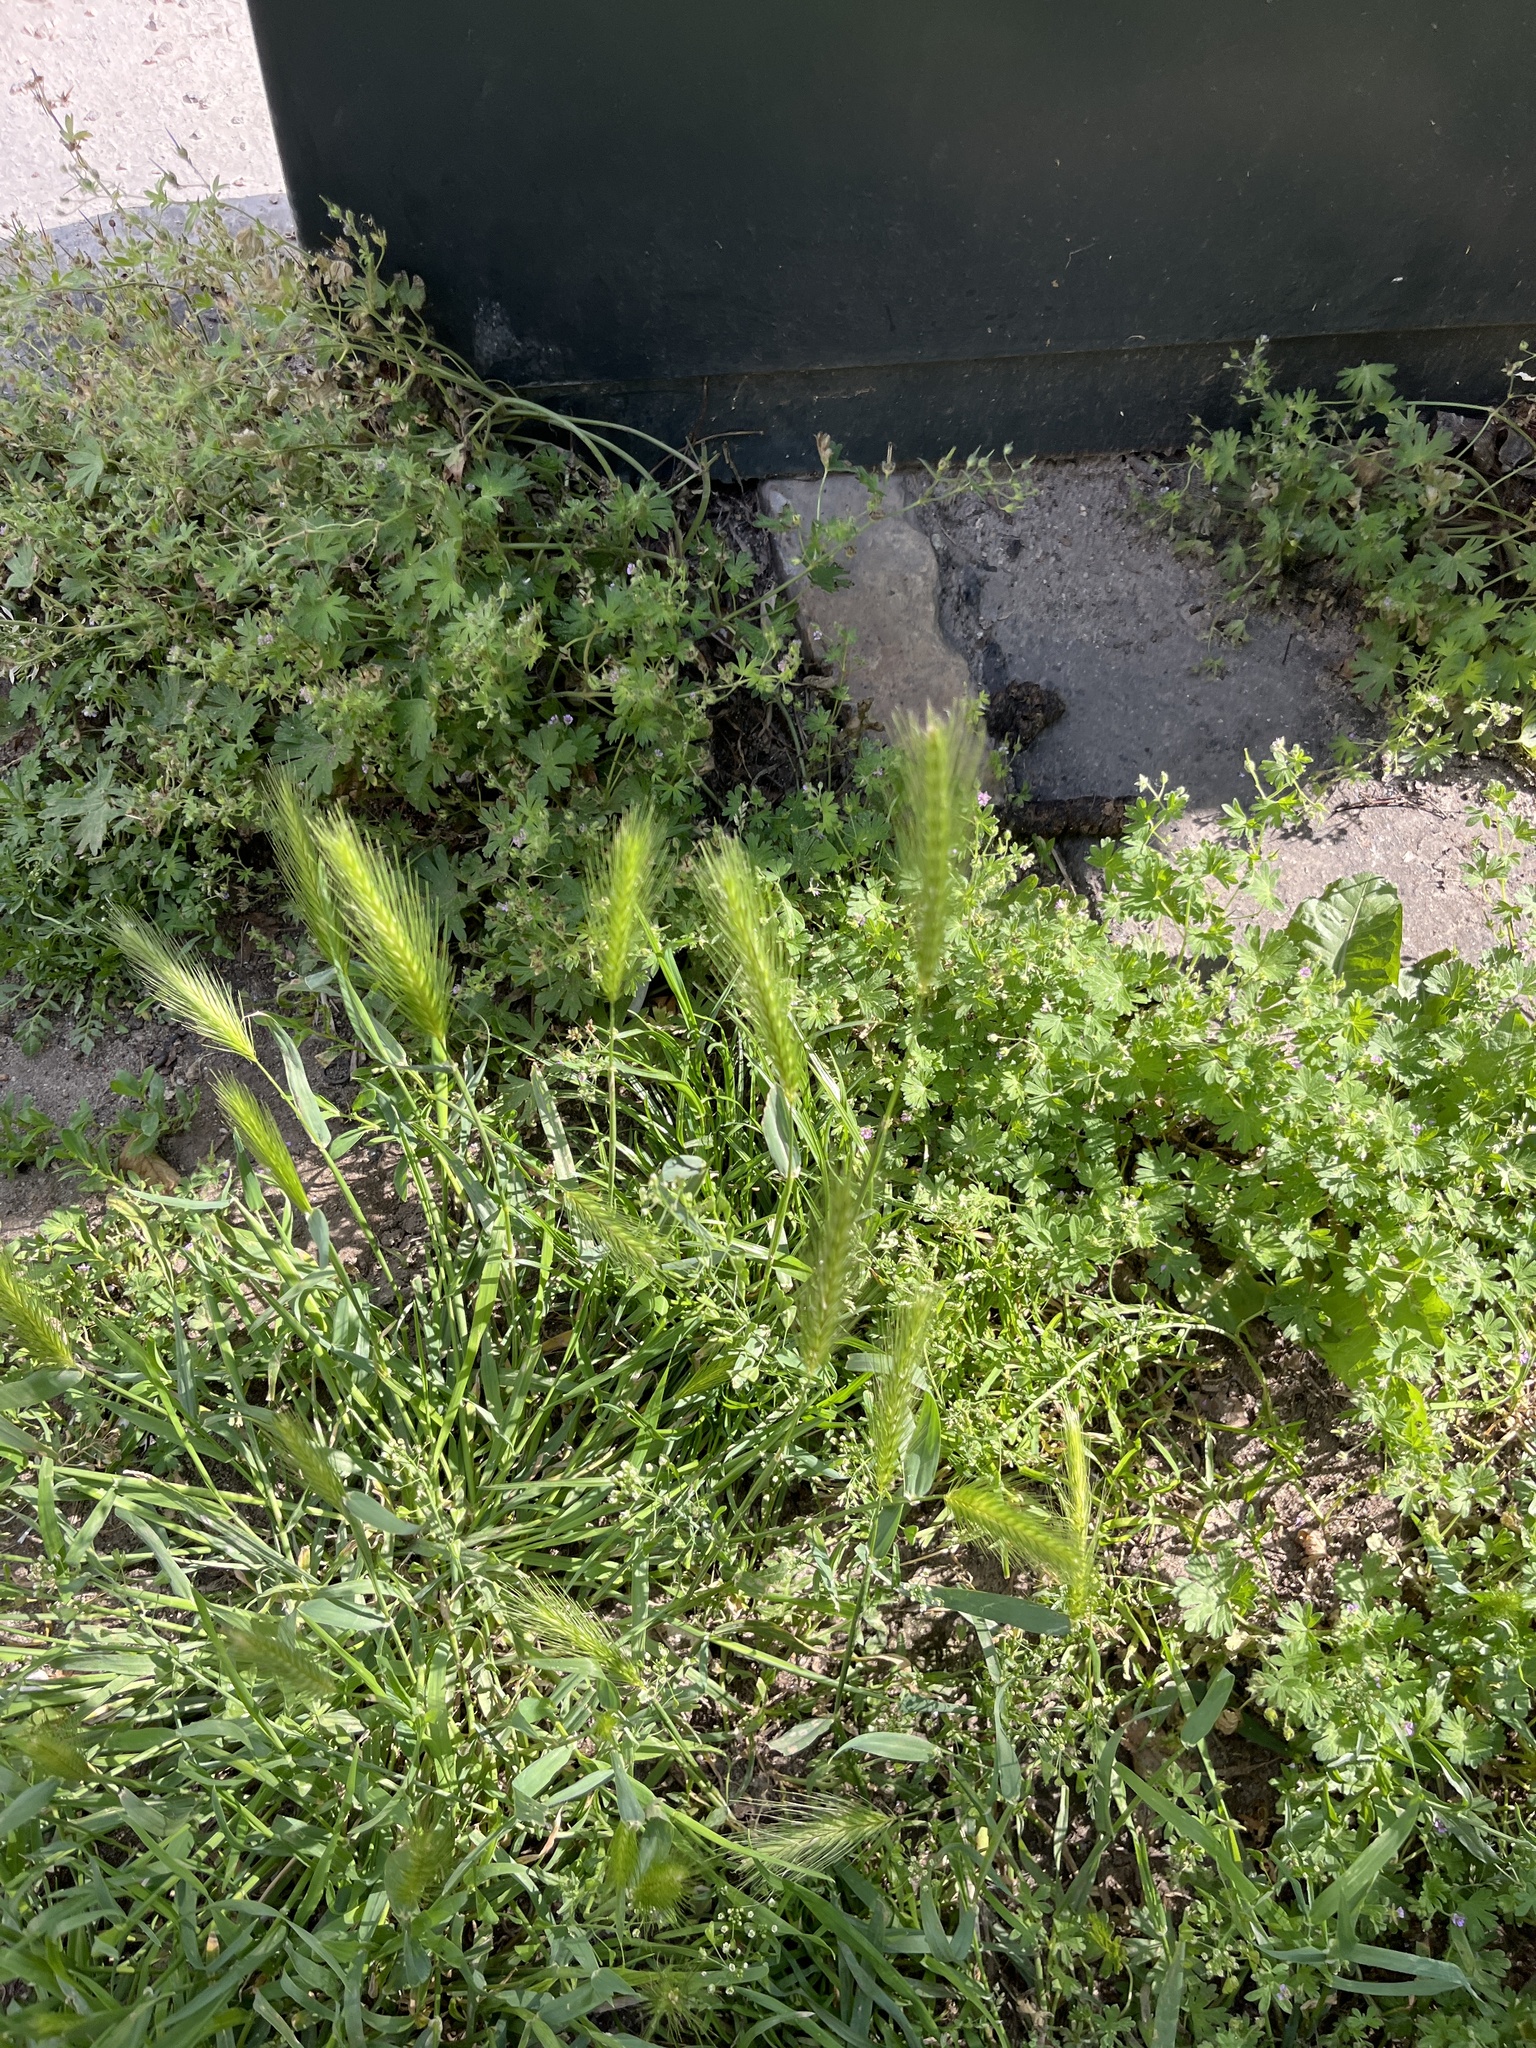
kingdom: Plantae
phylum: Tracheophyta
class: Liliopsida
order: Poales
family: Poaceae
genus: Hordeum
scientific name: Hordeum murinum
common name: Wall barley
